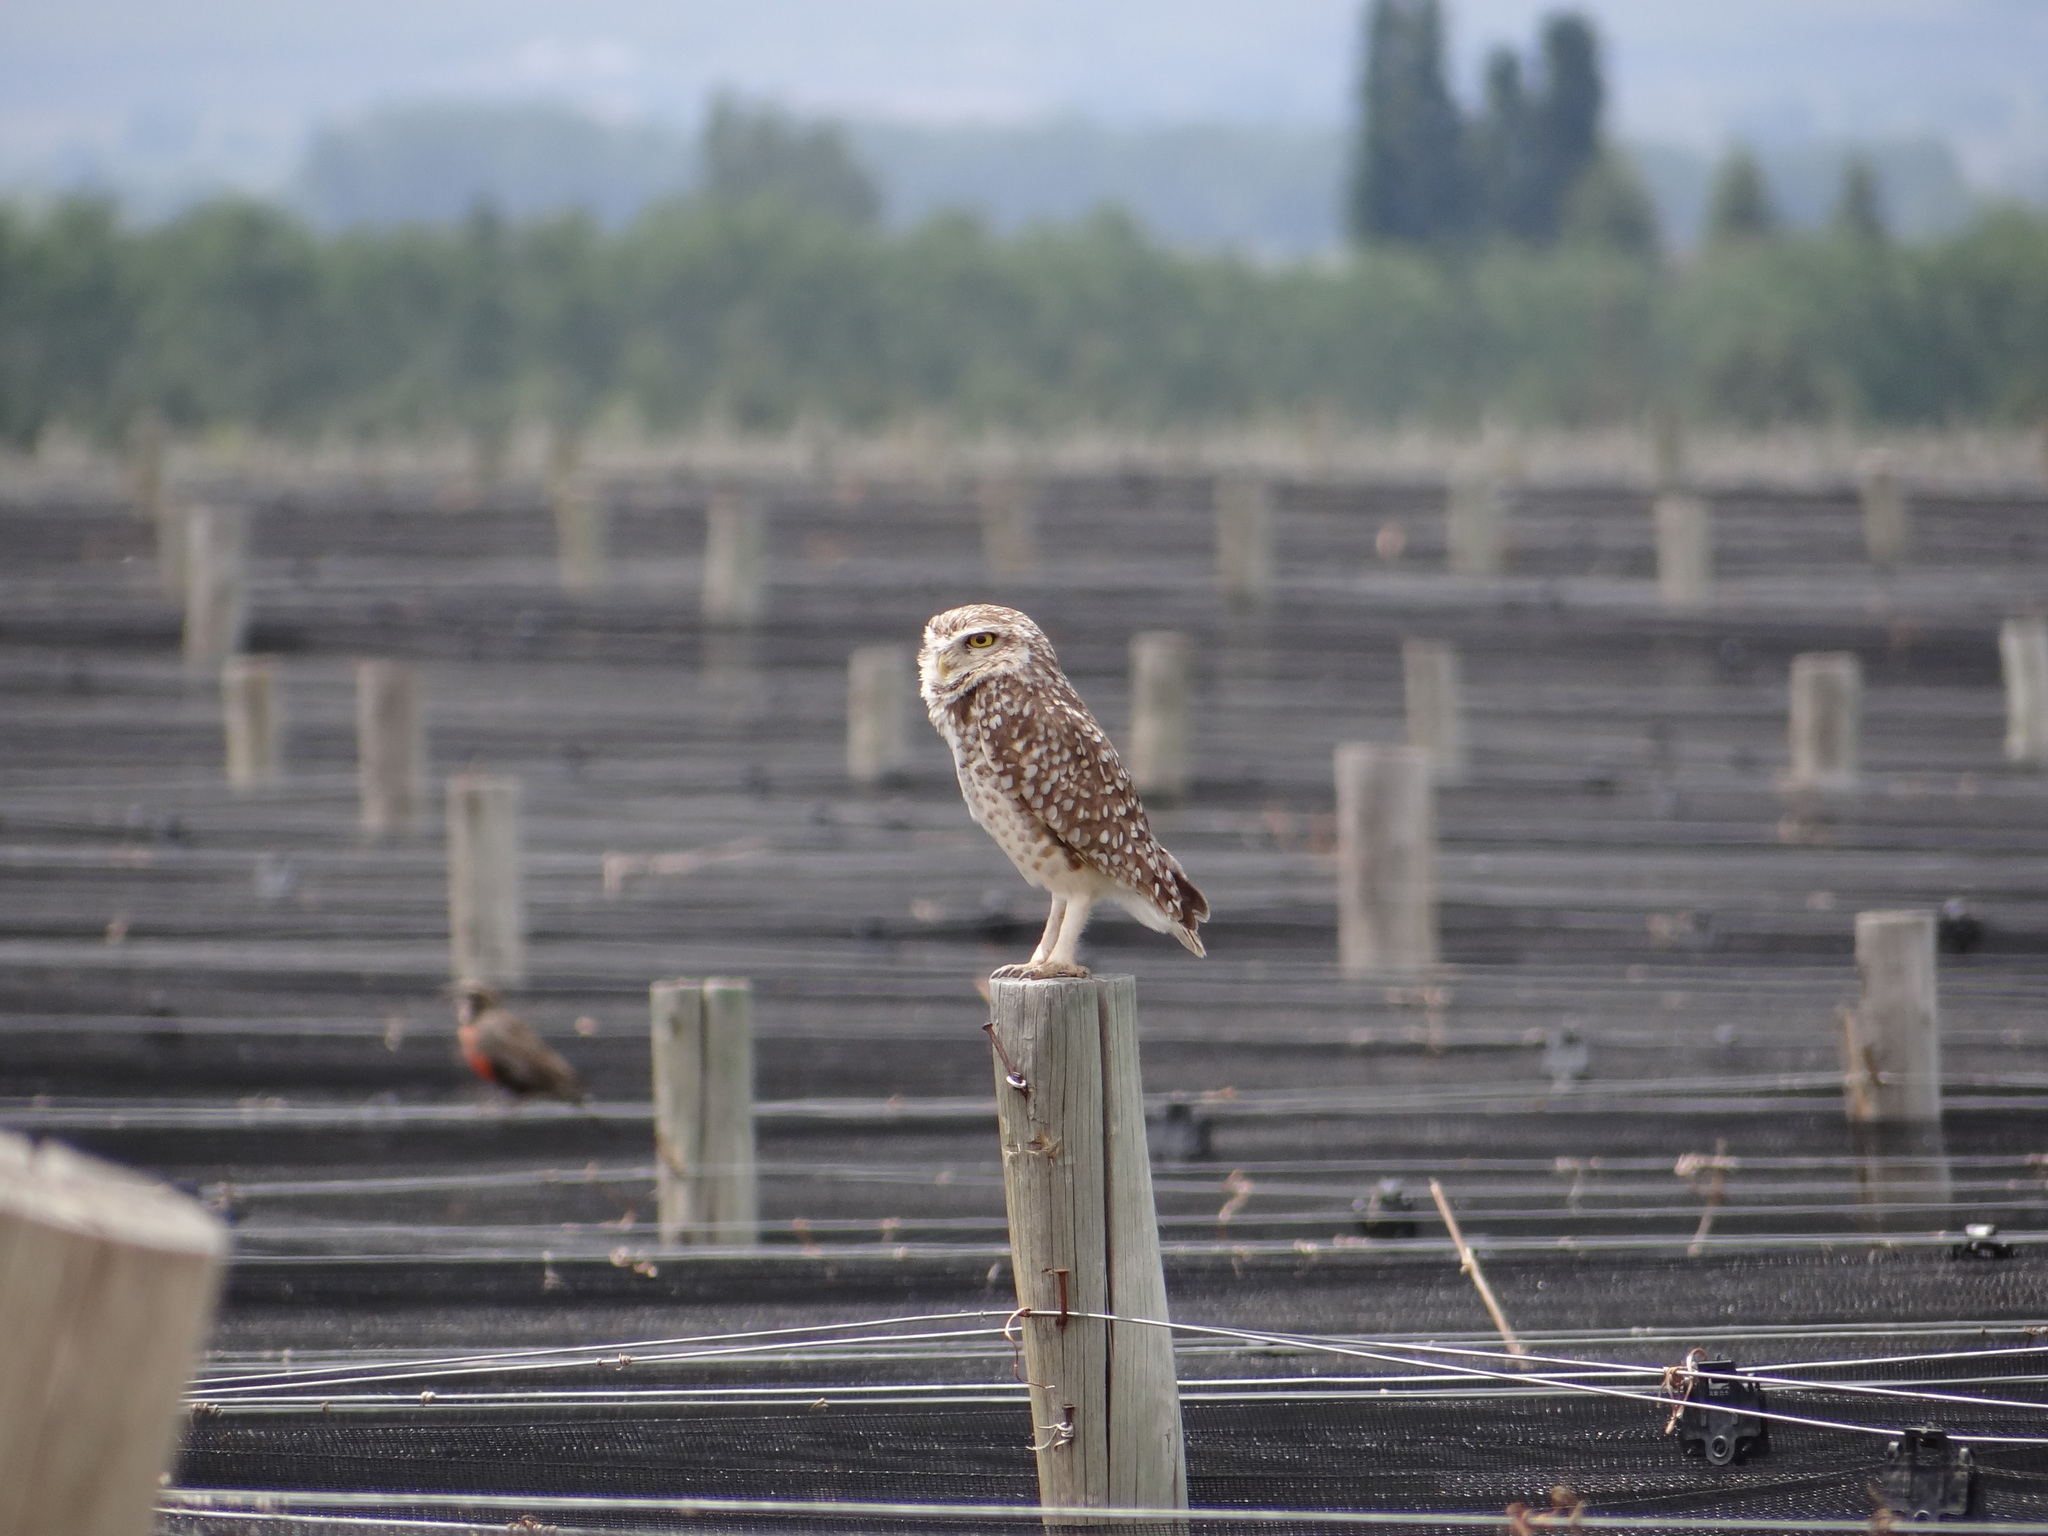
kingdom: Animalia
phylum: Chordata
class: Aves
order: Strigiformes
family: Strigidae
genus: Athene
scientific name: Athene cunicularia
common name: Burrowing owl
